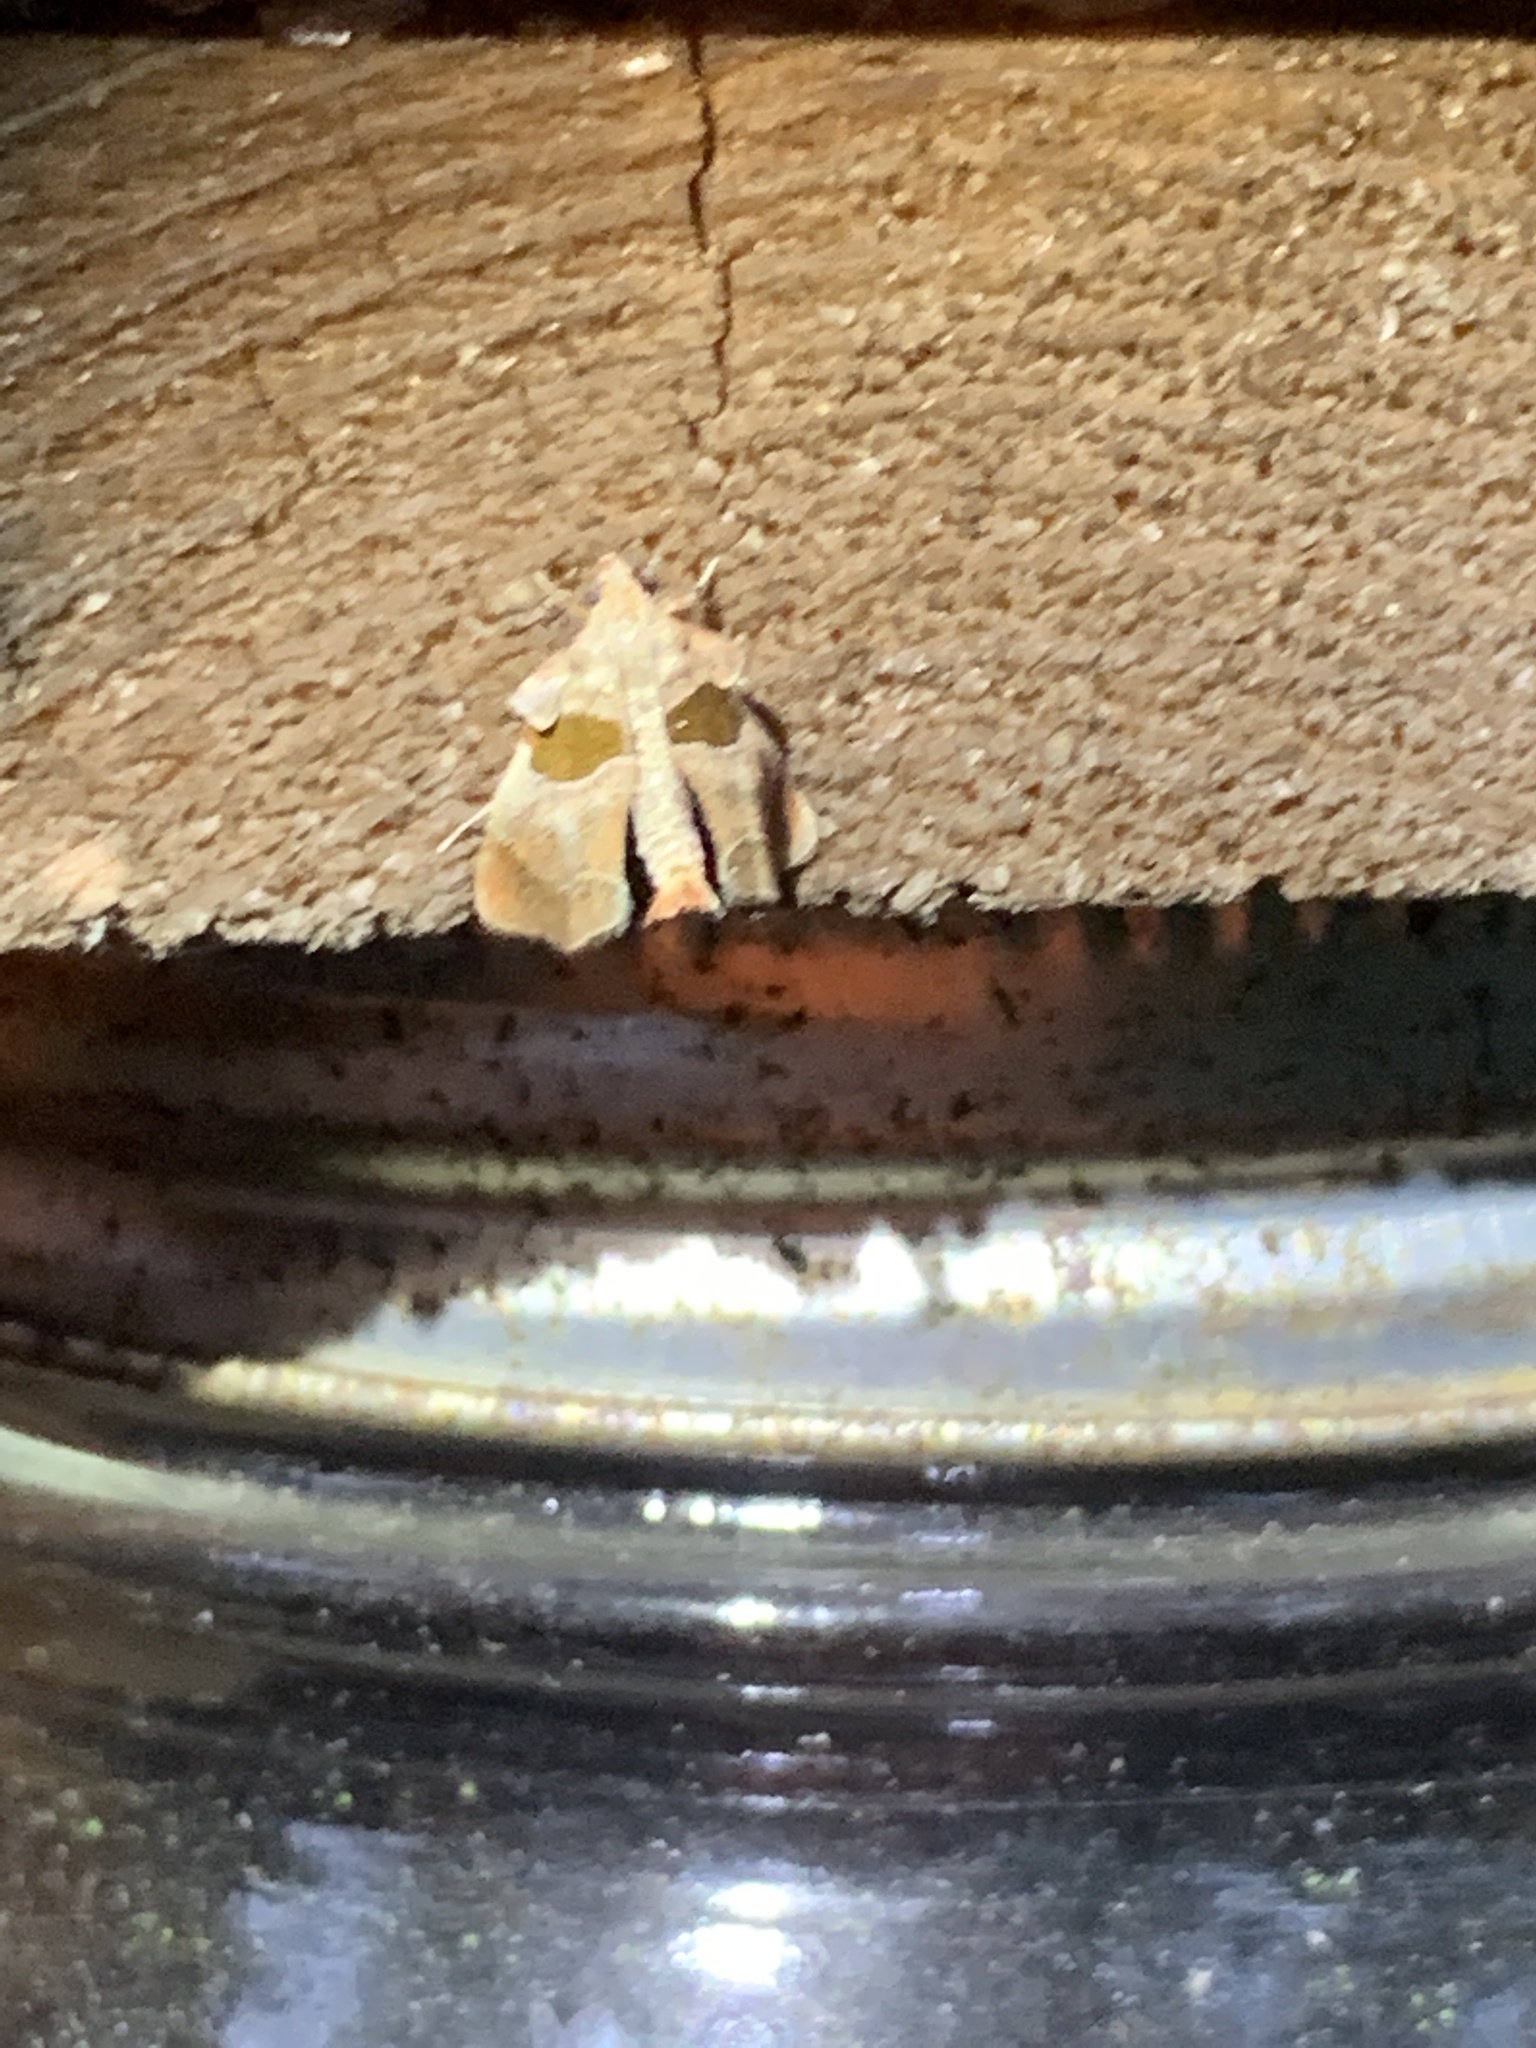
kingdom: Animalia
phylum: Arthropoda
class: Insecta
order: Lepidoptera
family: Pyralidae
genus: Tosale
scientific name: Tosale oviplagalis
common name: Dimorphic tosale moth
